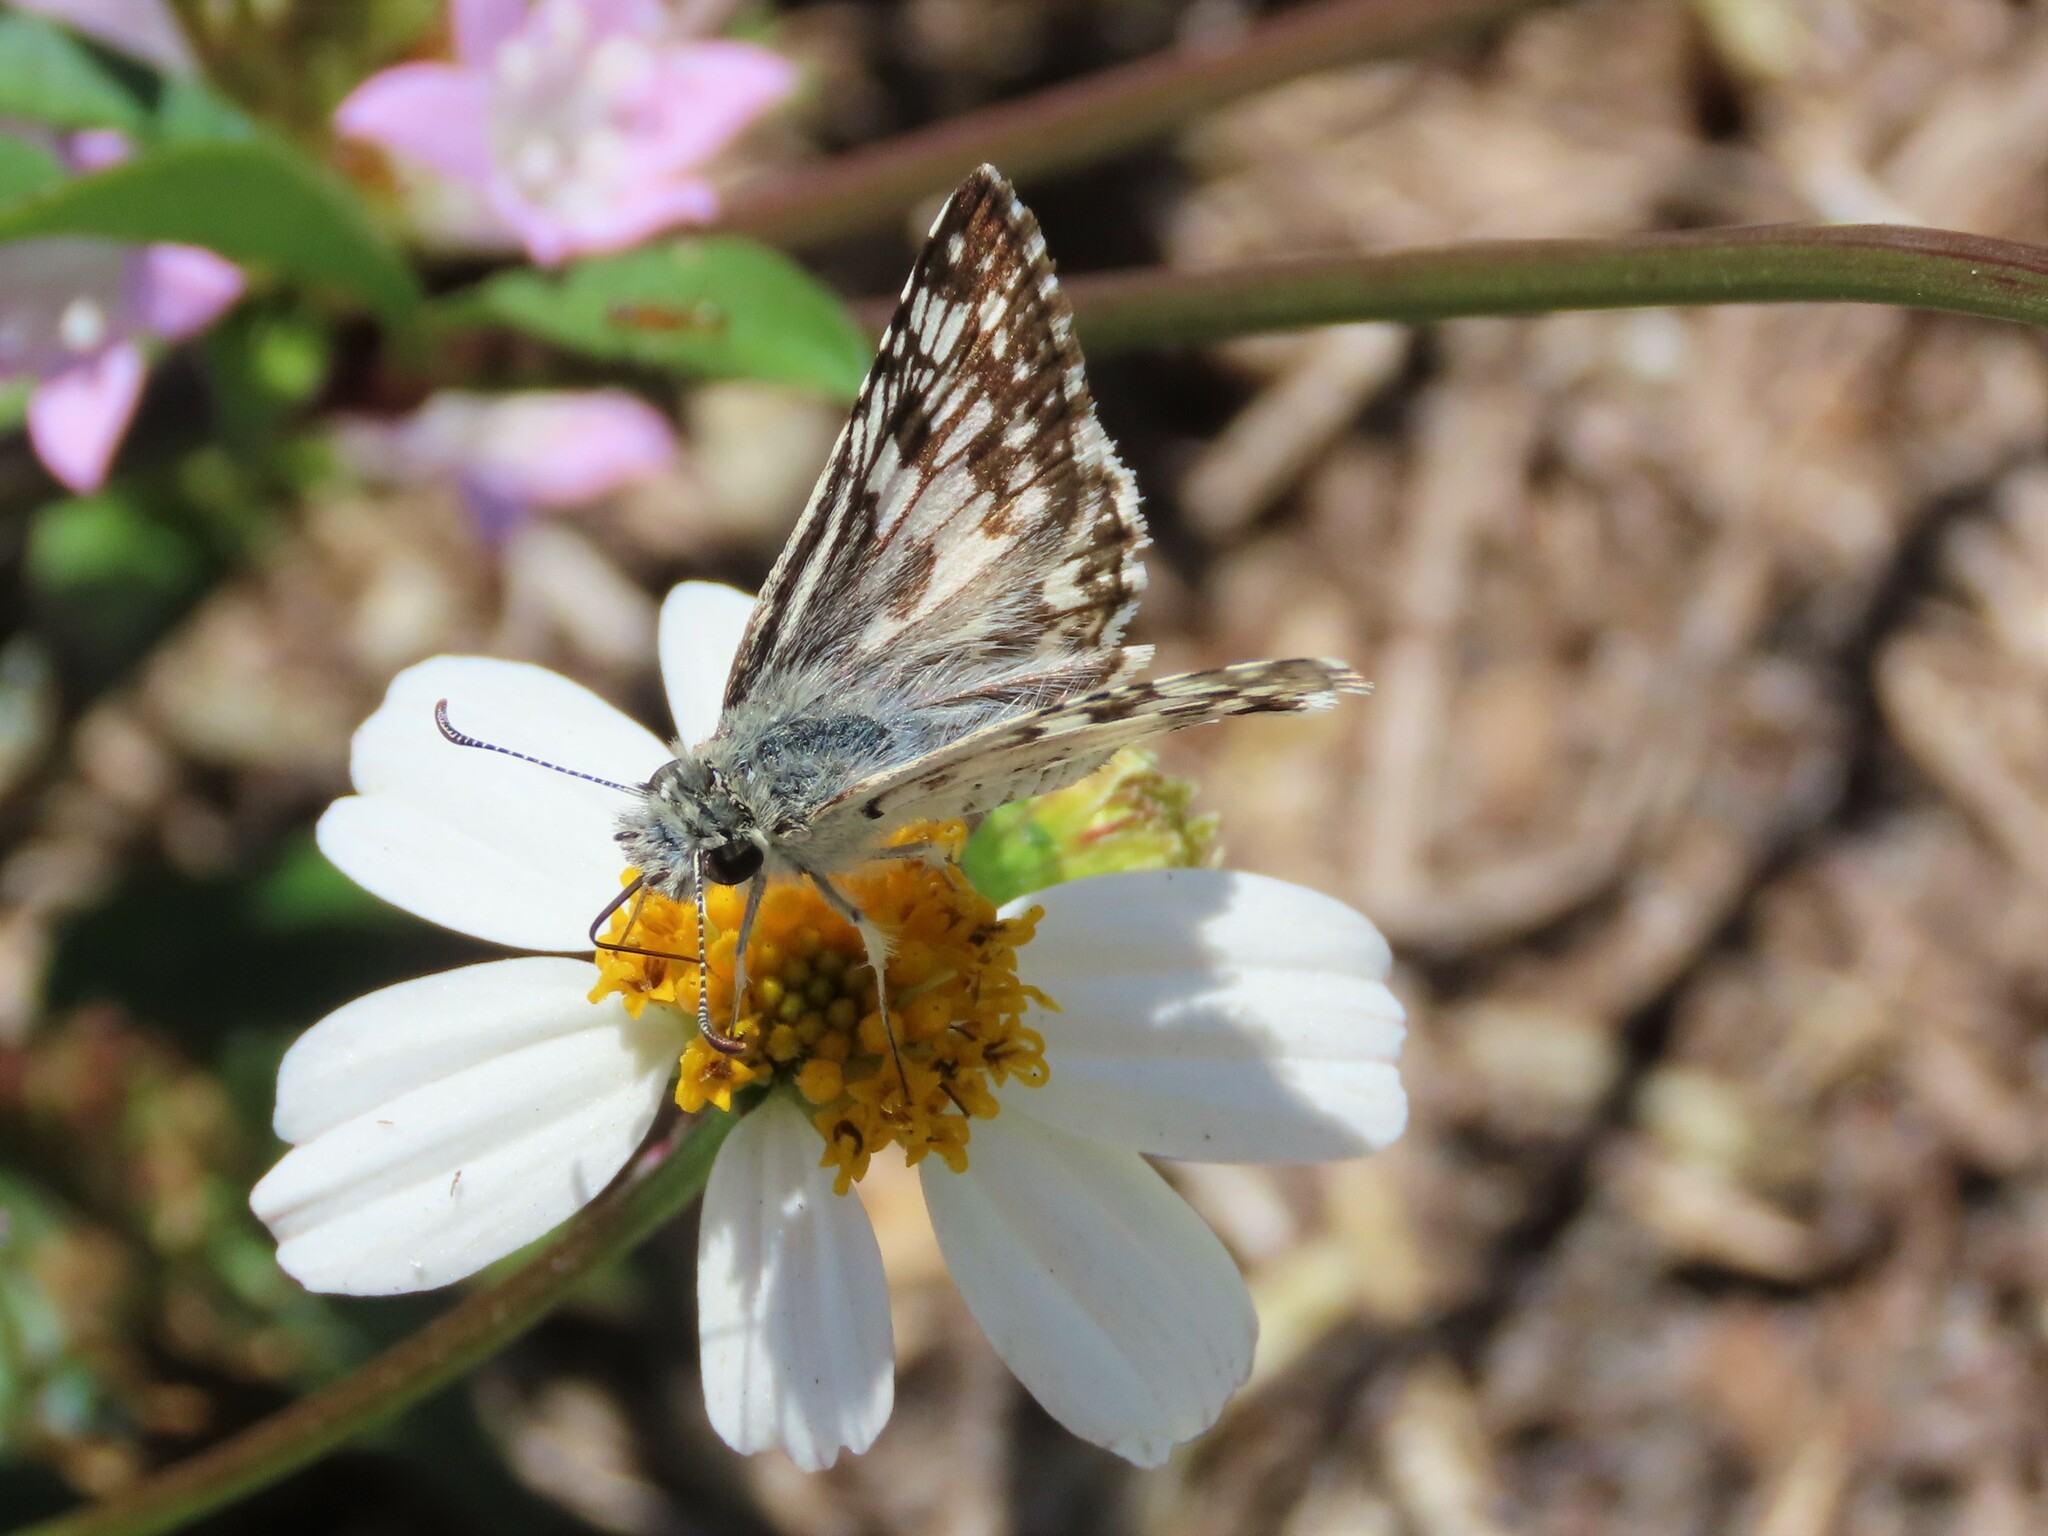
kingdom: Animalia
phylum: Arthropoda
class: Insecta
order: Lepidoptera
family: Hesperiidae
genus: Burnsius
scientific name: Burnsius albezens
